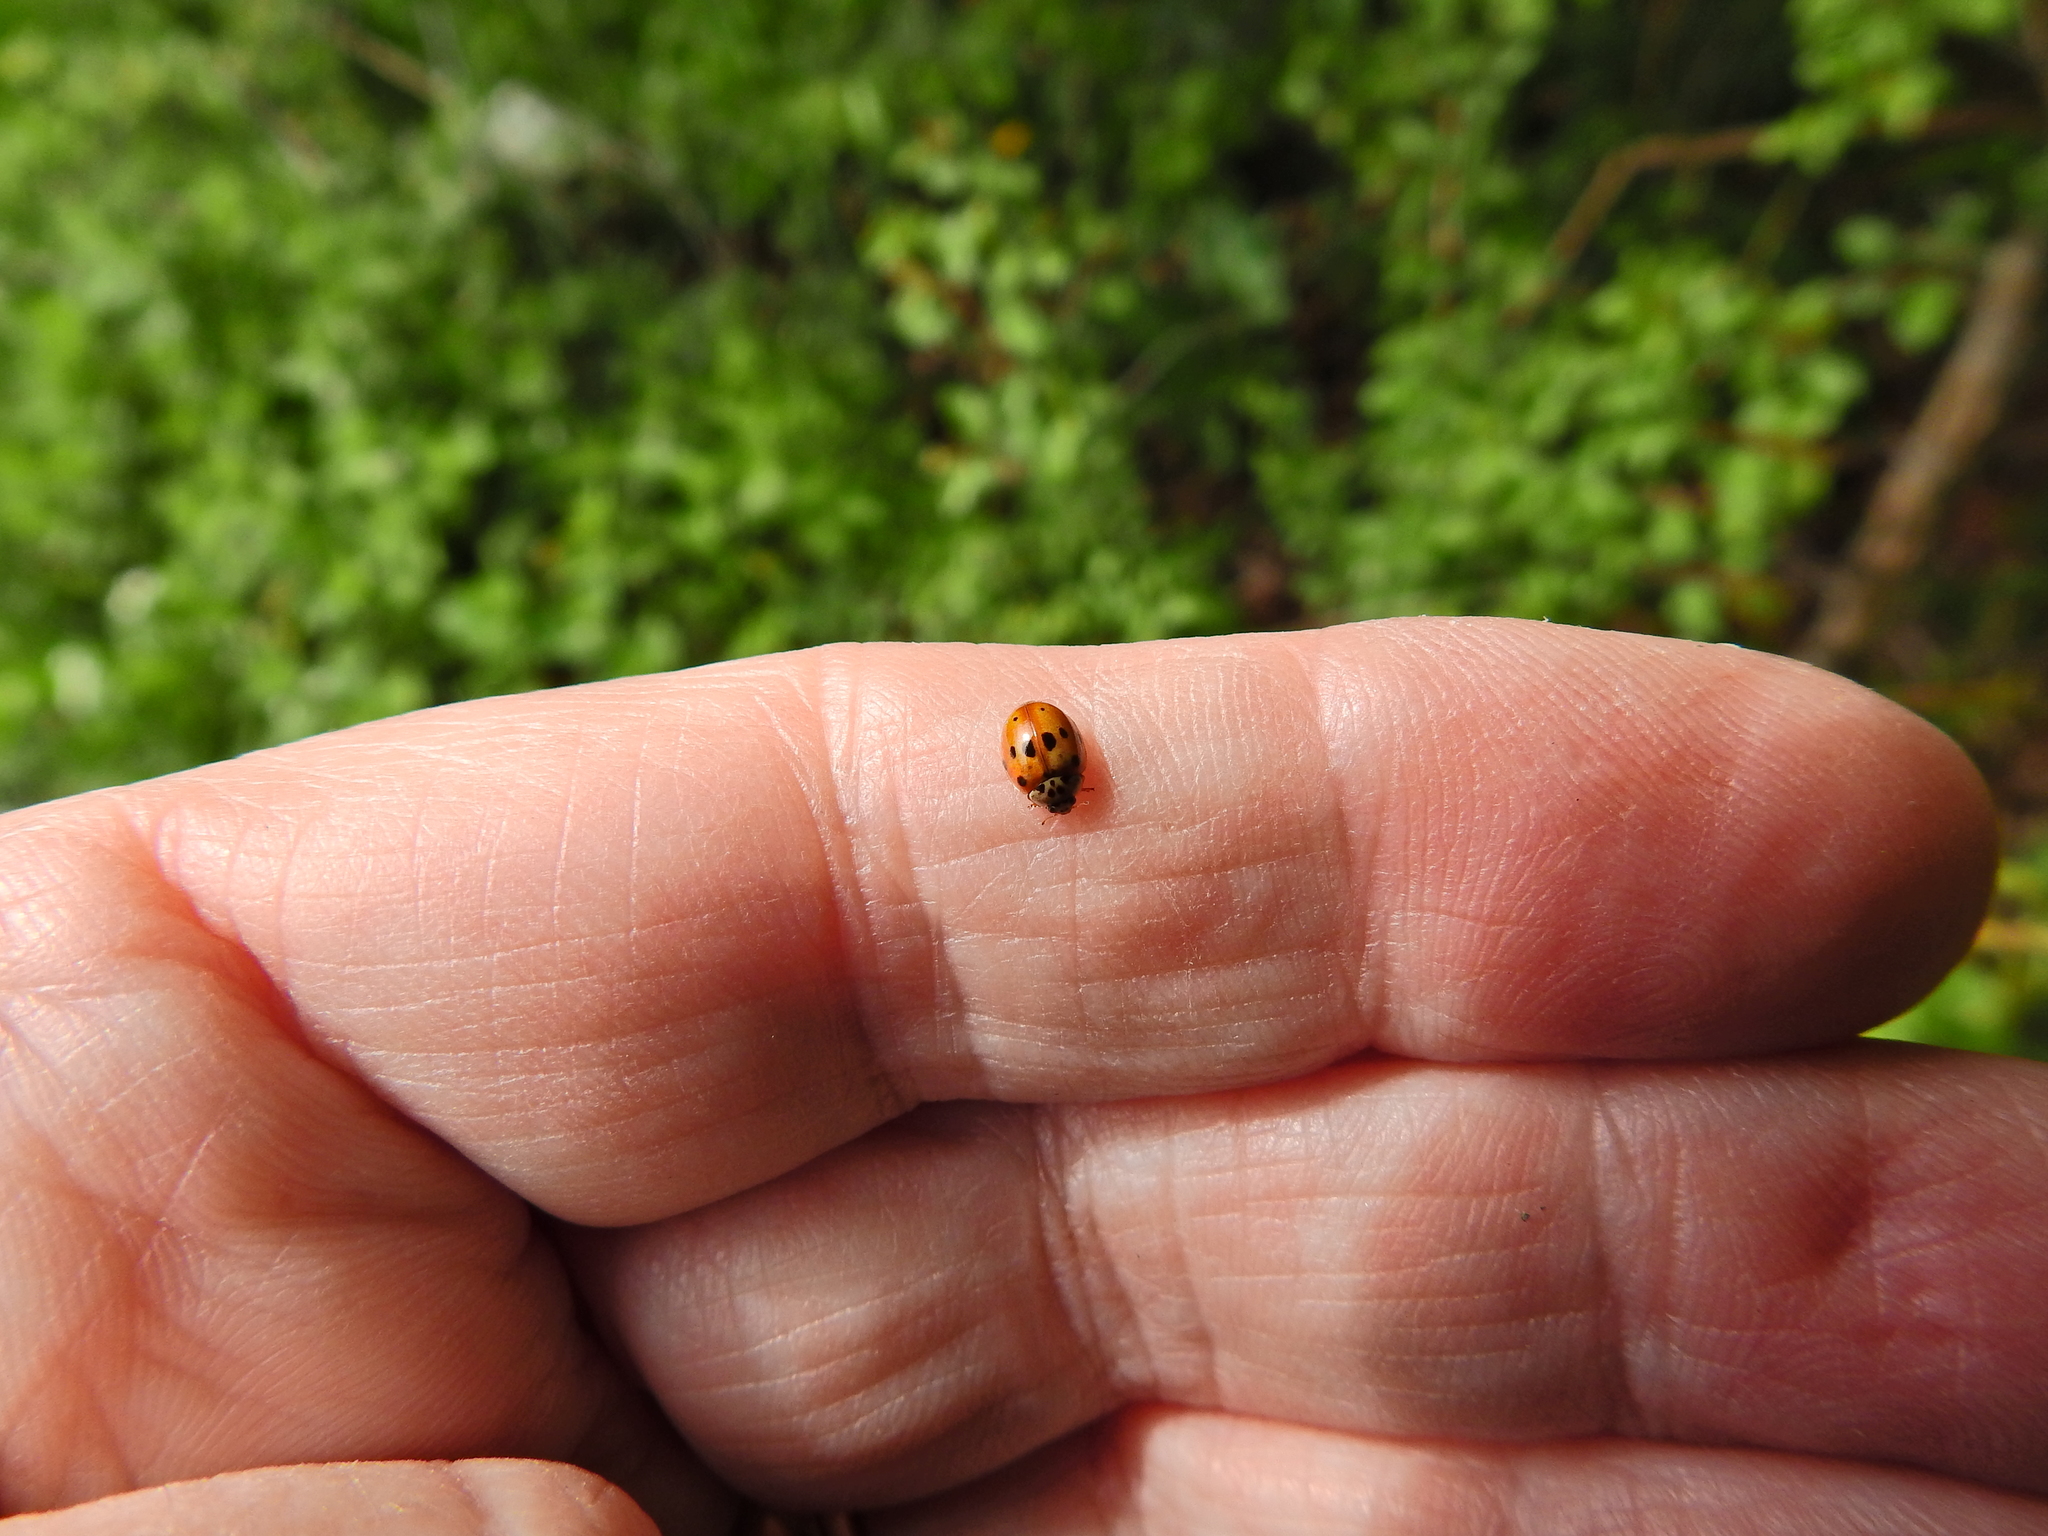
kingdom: Animalia
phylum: Arthropoda
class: Insecta
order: Coleoptera
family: Coccinellidae
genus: Adalia
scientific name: Adalia decempunctata
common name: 10-spot ladybird
